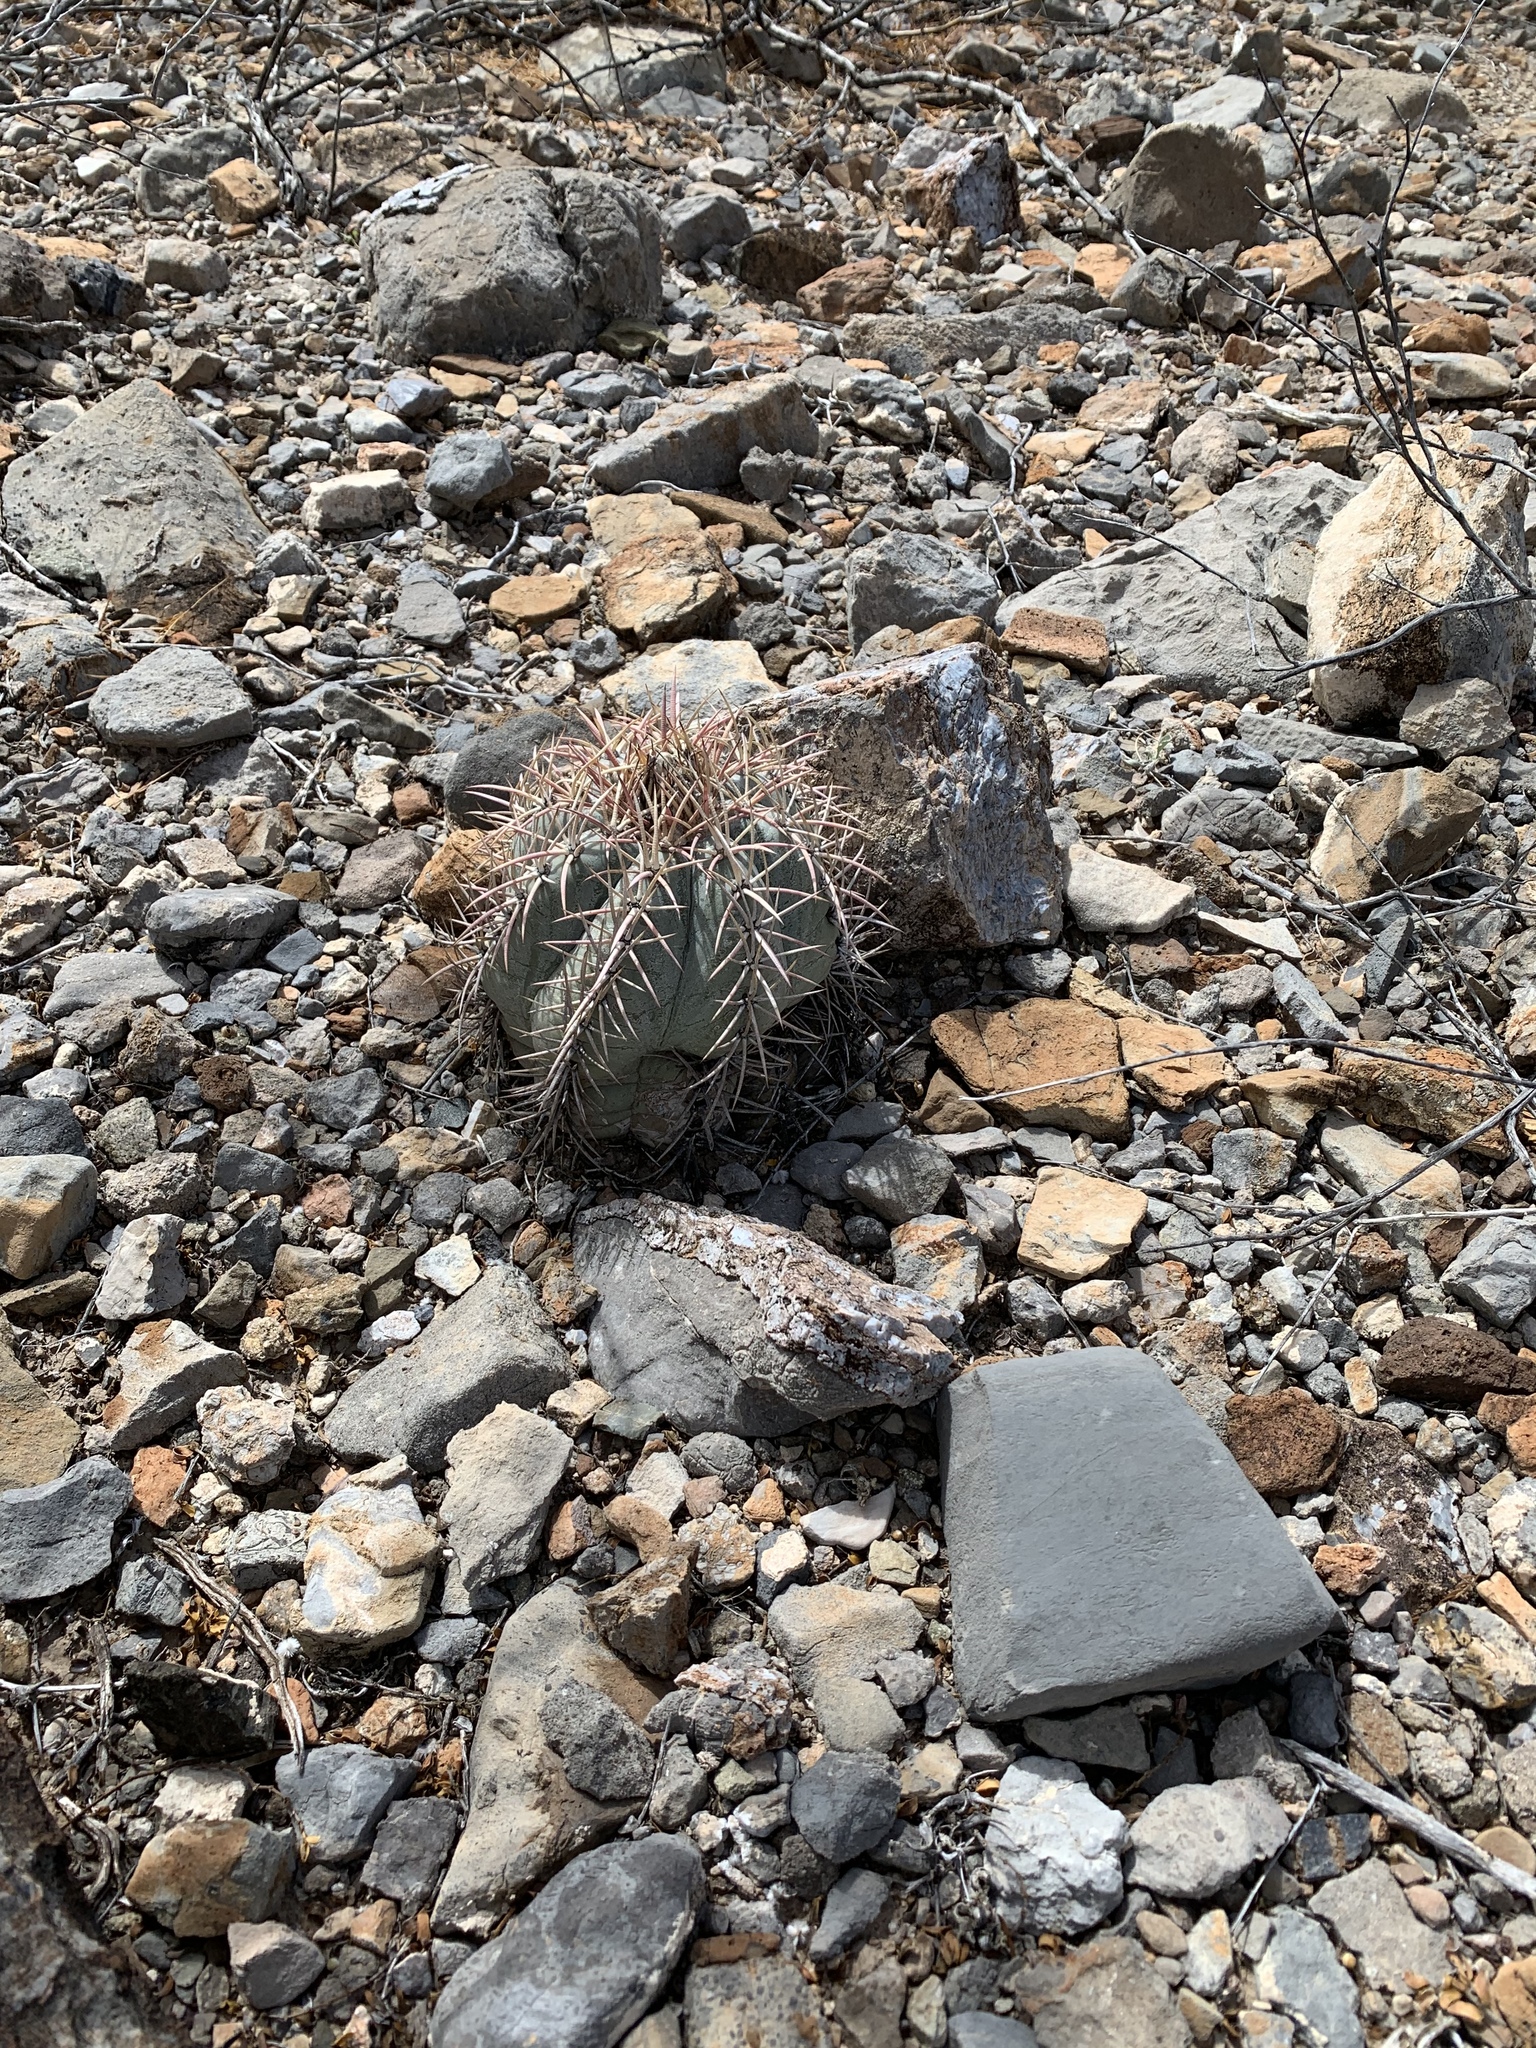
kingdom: Plantae
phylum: Tracheophyta
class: Magnoliopsida
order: Caryophyllales
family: Cactaceae
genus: Echinocactus
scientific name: Echinocactus horizonthalonius
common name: Devilshead
